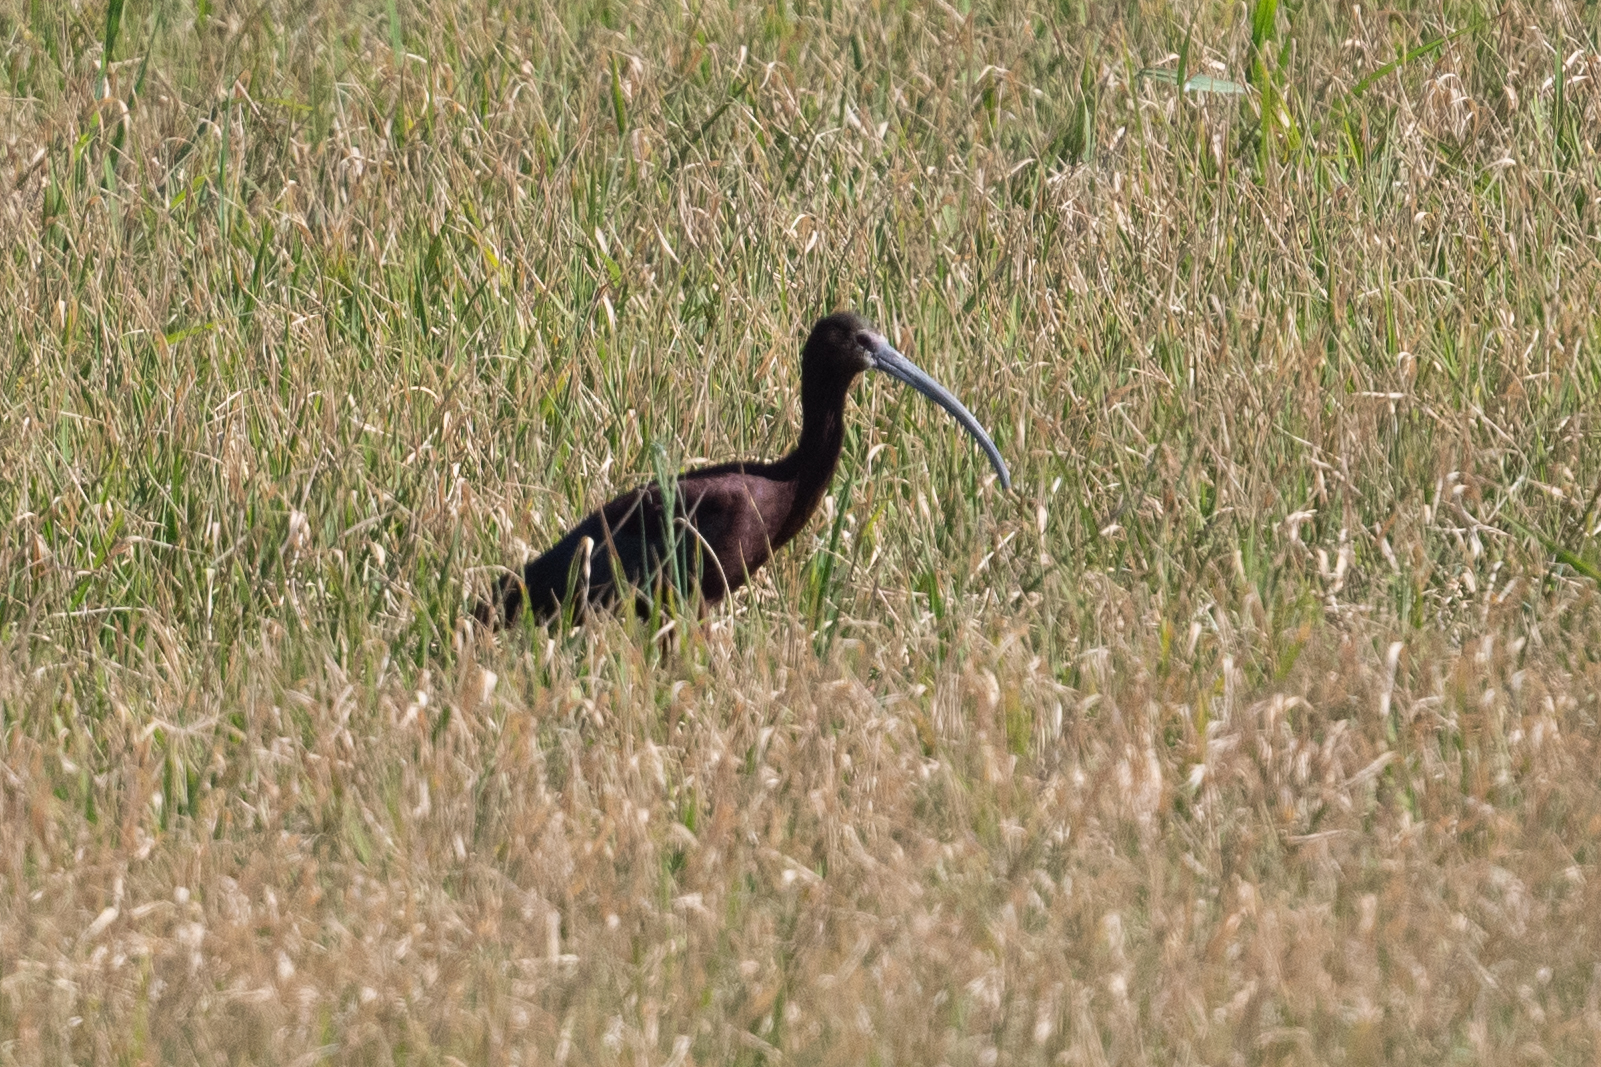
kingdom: Animalia
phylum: Chordata
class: Aves
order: Pelecaniformes
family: Threskiornithidae
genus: Plegadis
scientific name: Plegadis chihi
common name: White-faced ibis
